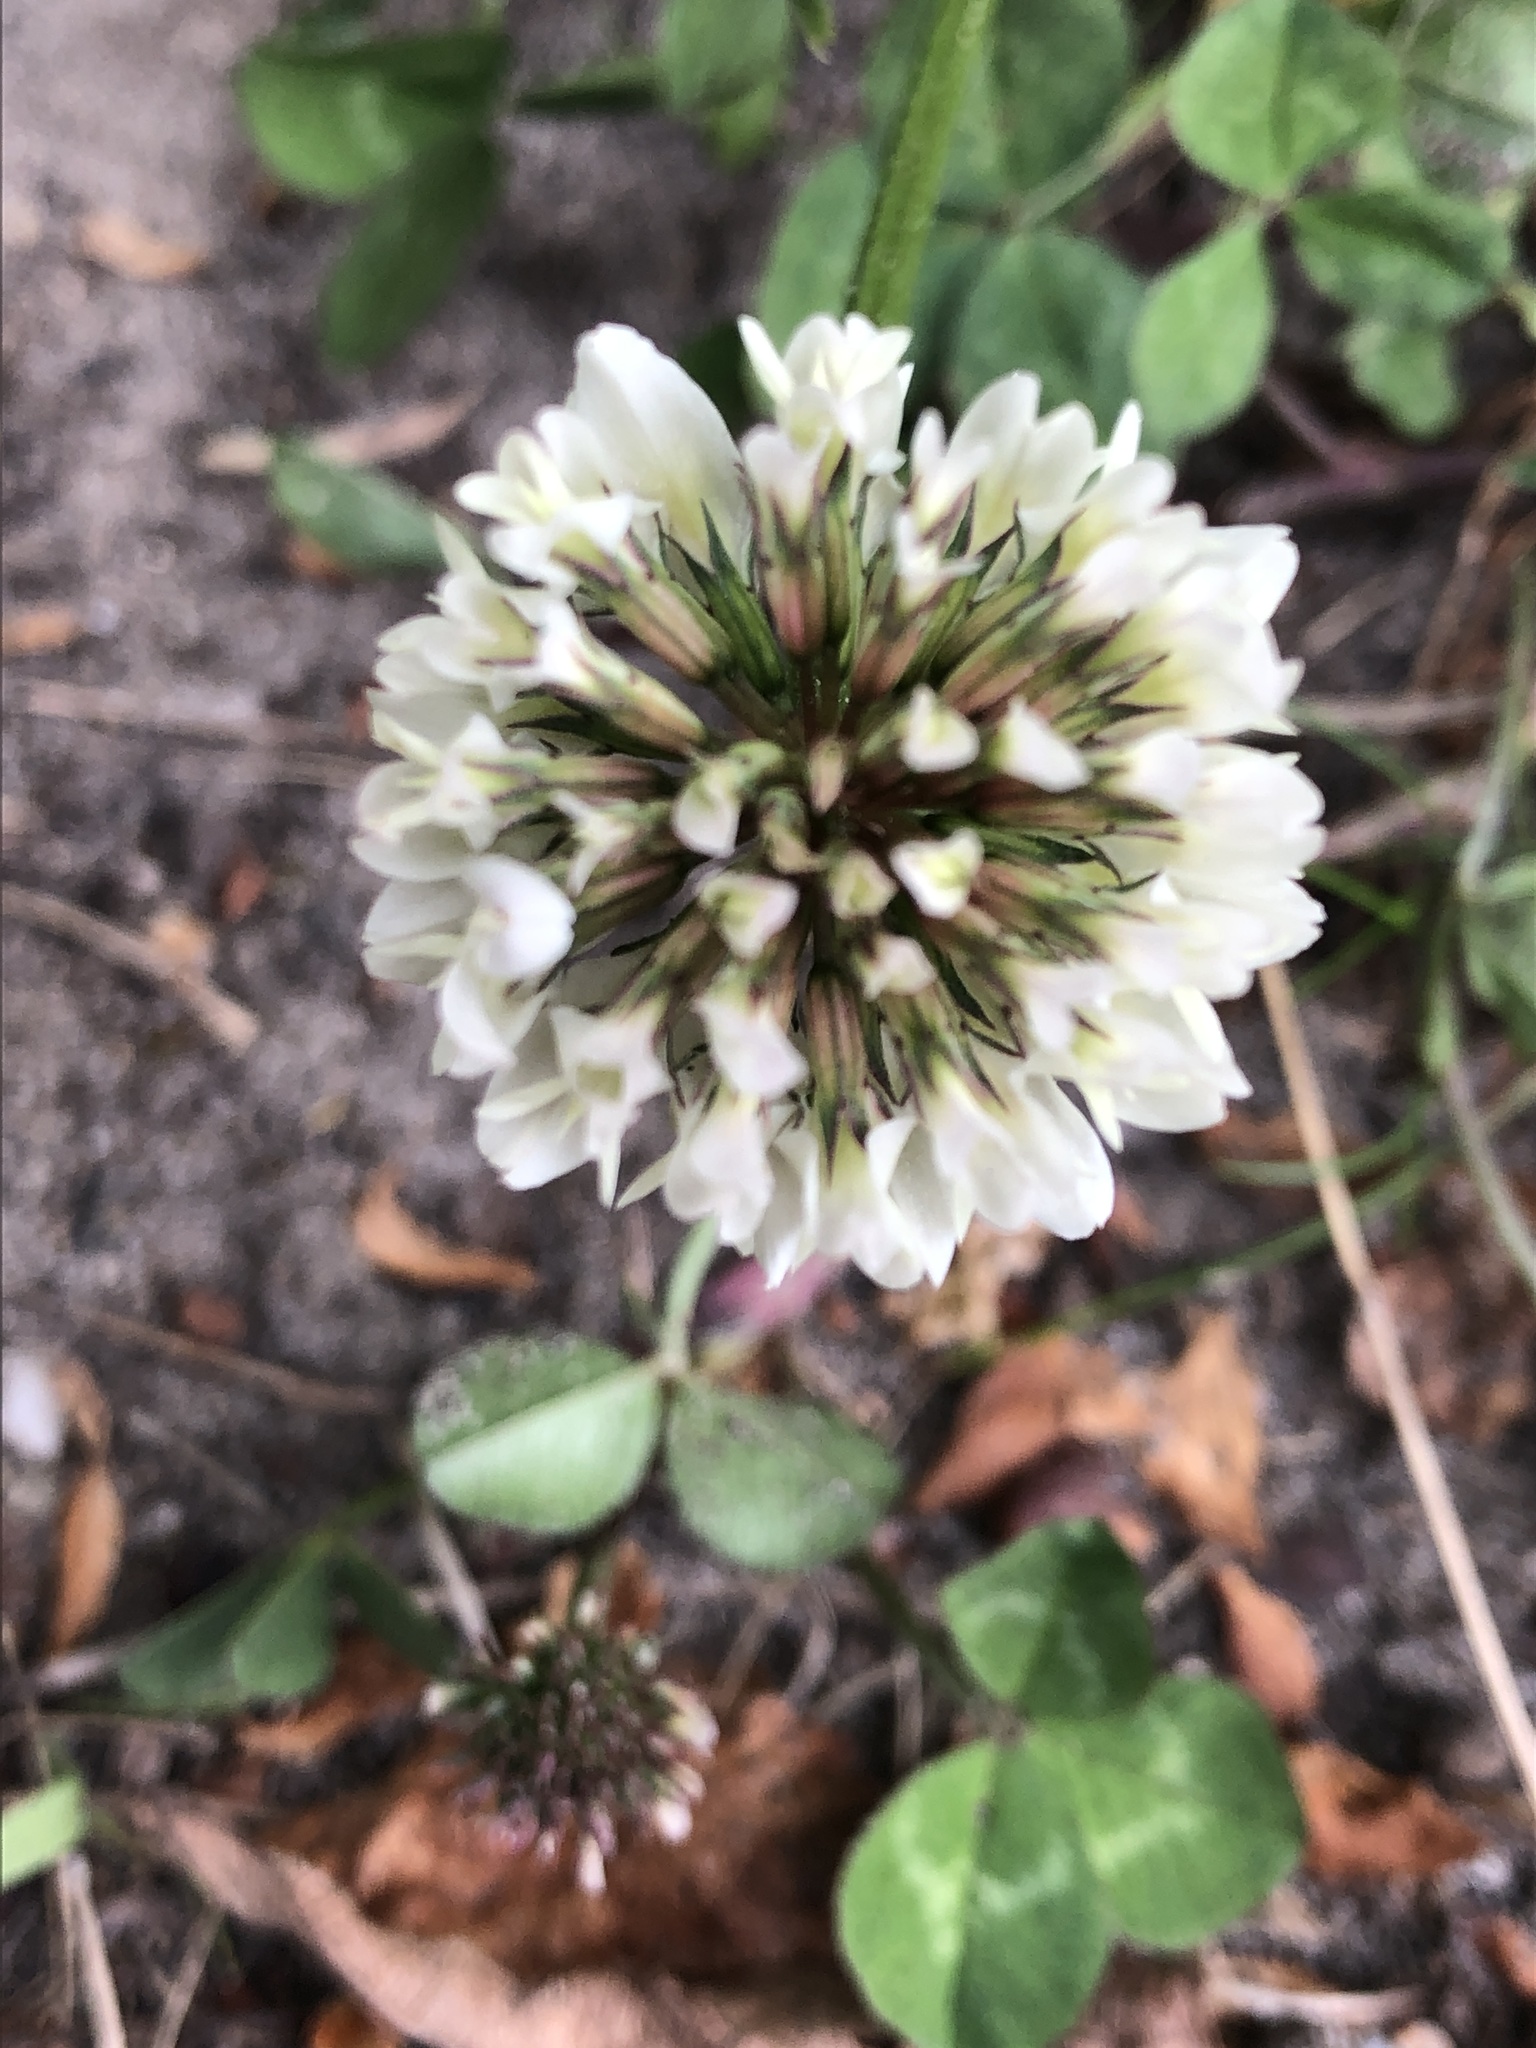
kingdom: Plantae
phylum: Tracheophyta
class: Magnoliopsida
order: Fabales
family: Fabaceae
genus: Trifolium
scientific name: Trifolium repens
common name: White clover
